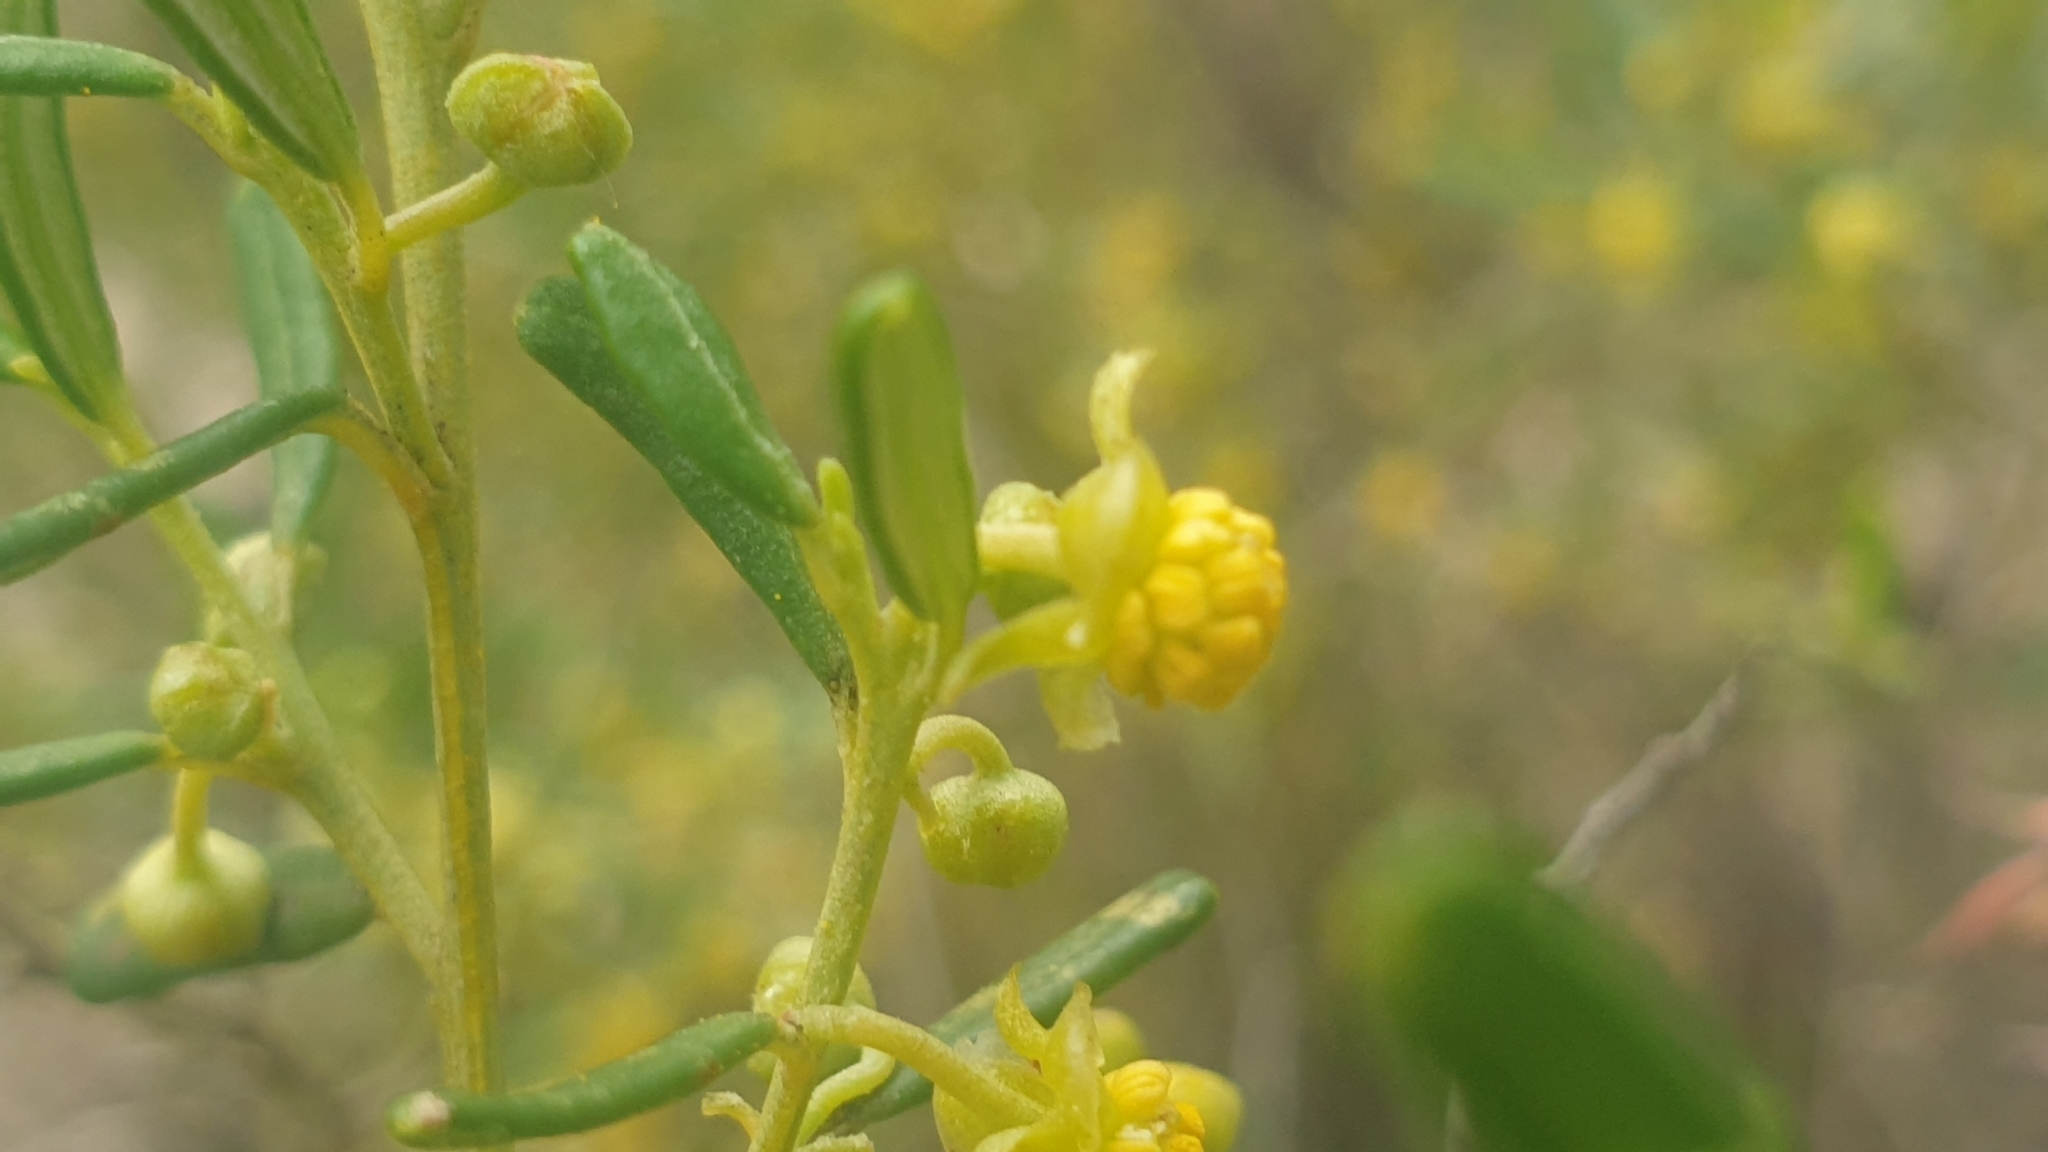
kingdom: Plantae
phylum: Tracheophyta
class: Magnoliopsida
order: Malpighiales
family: Euphorbiaceae
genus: Beyeria
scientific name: Beyeria lechenaultii
